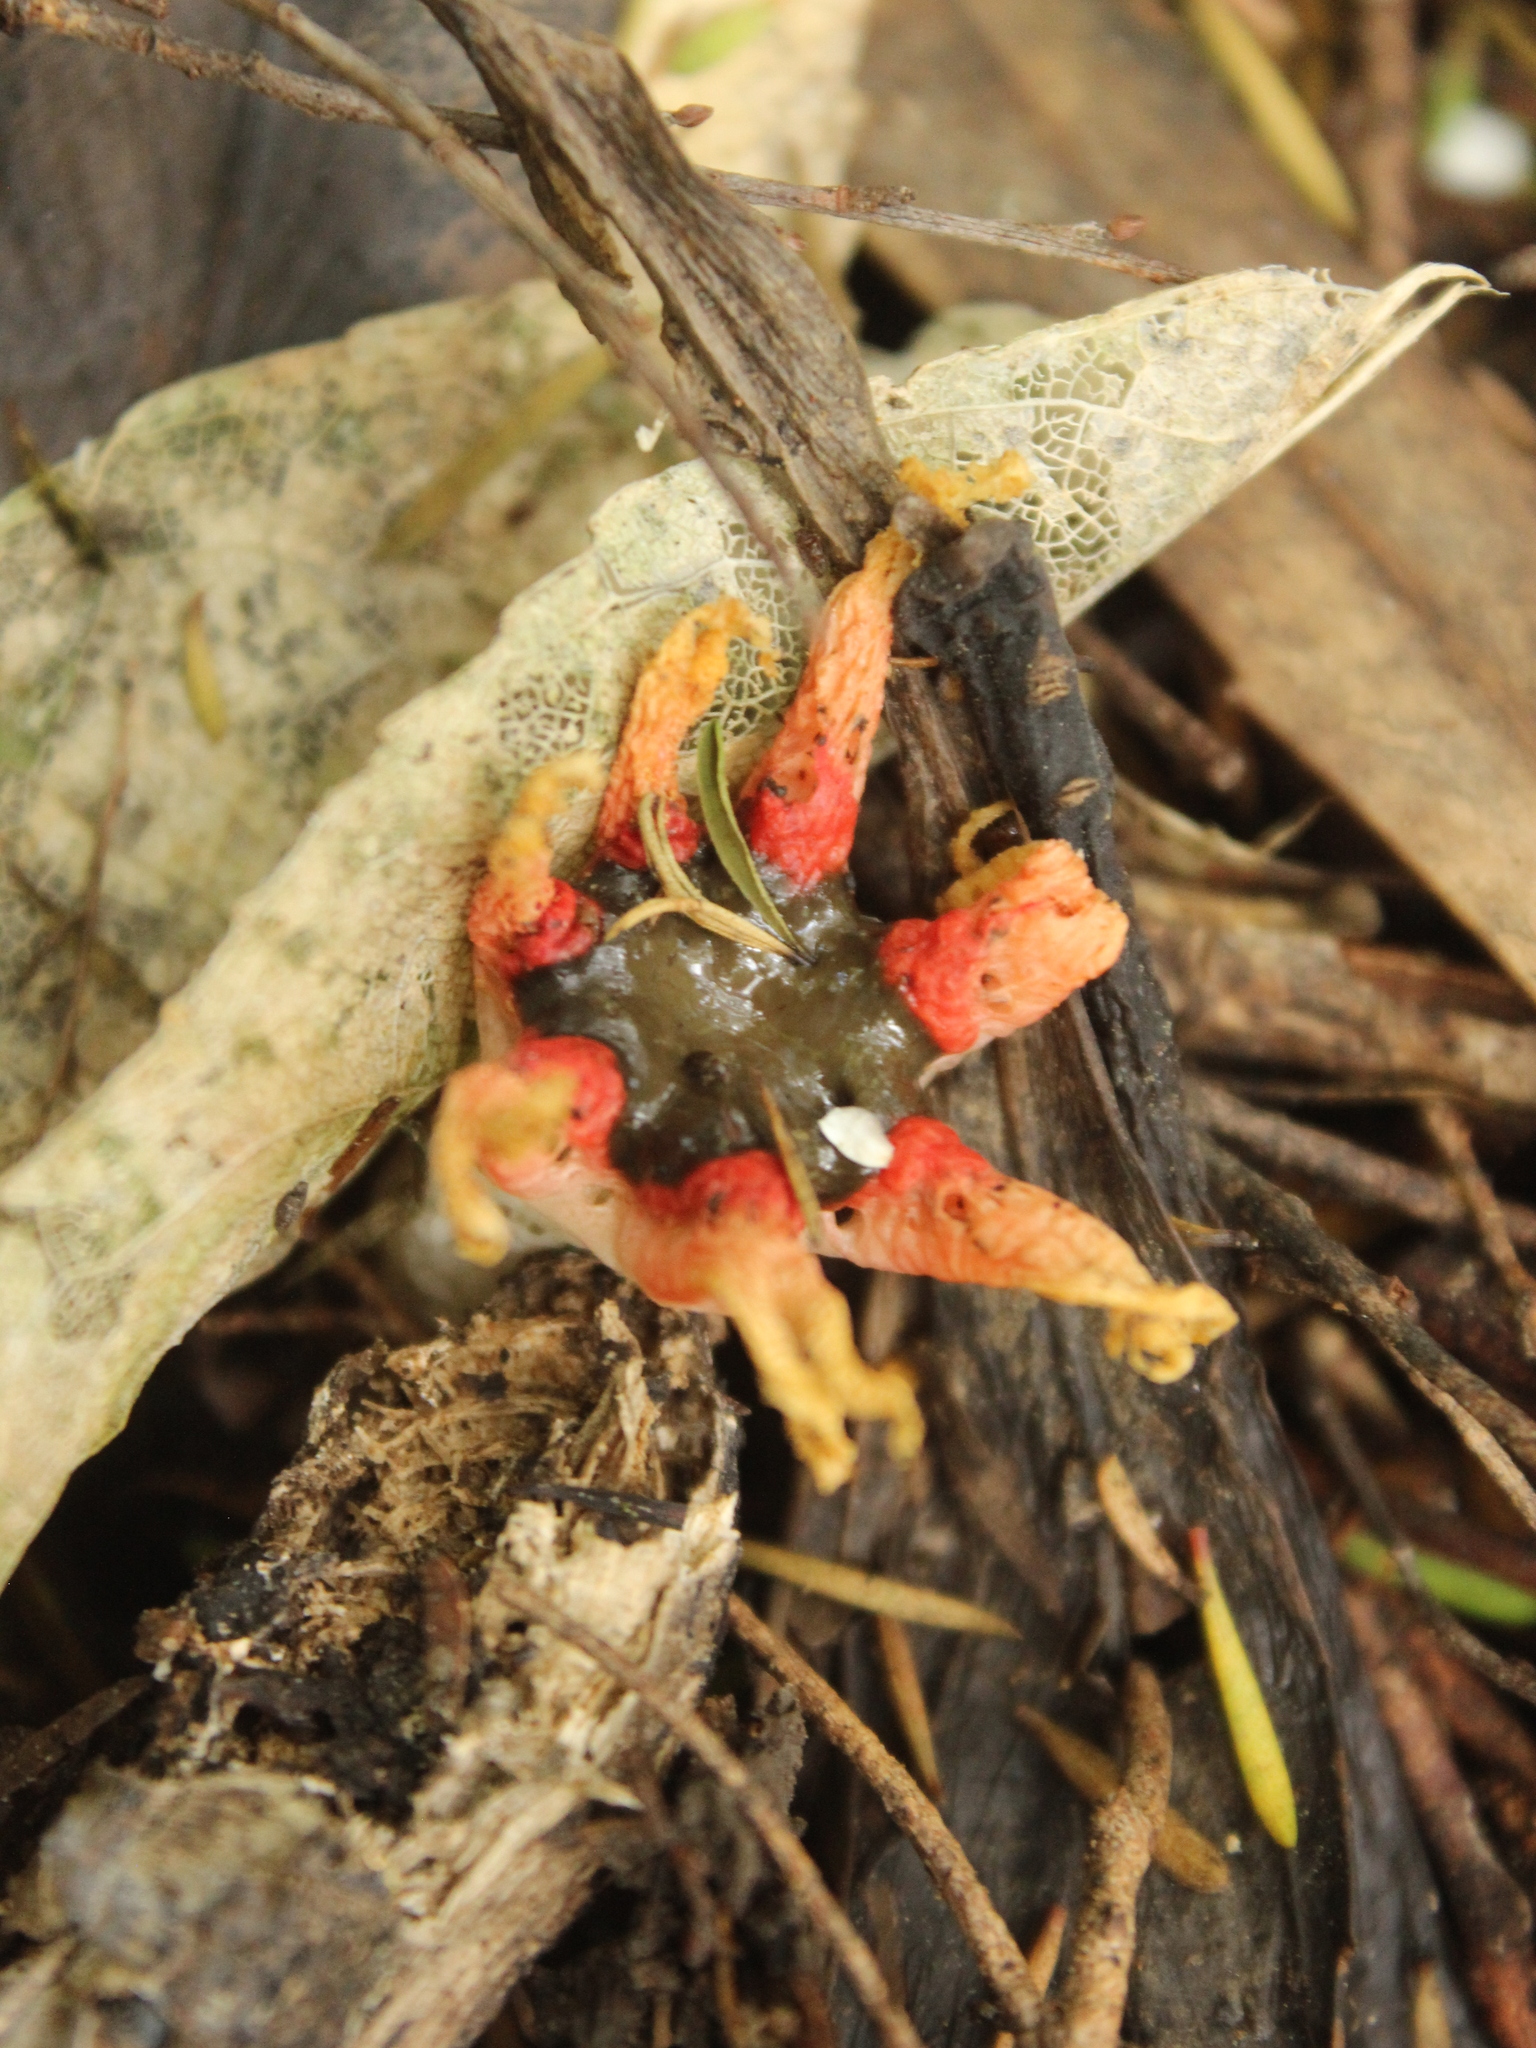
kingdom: Fungi
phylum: Basidiomycota
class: Agaricomycetes
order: Phallales
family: Phallaceae
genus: Aseroe
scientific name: Aseroe rubra
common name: Starfish fungus
